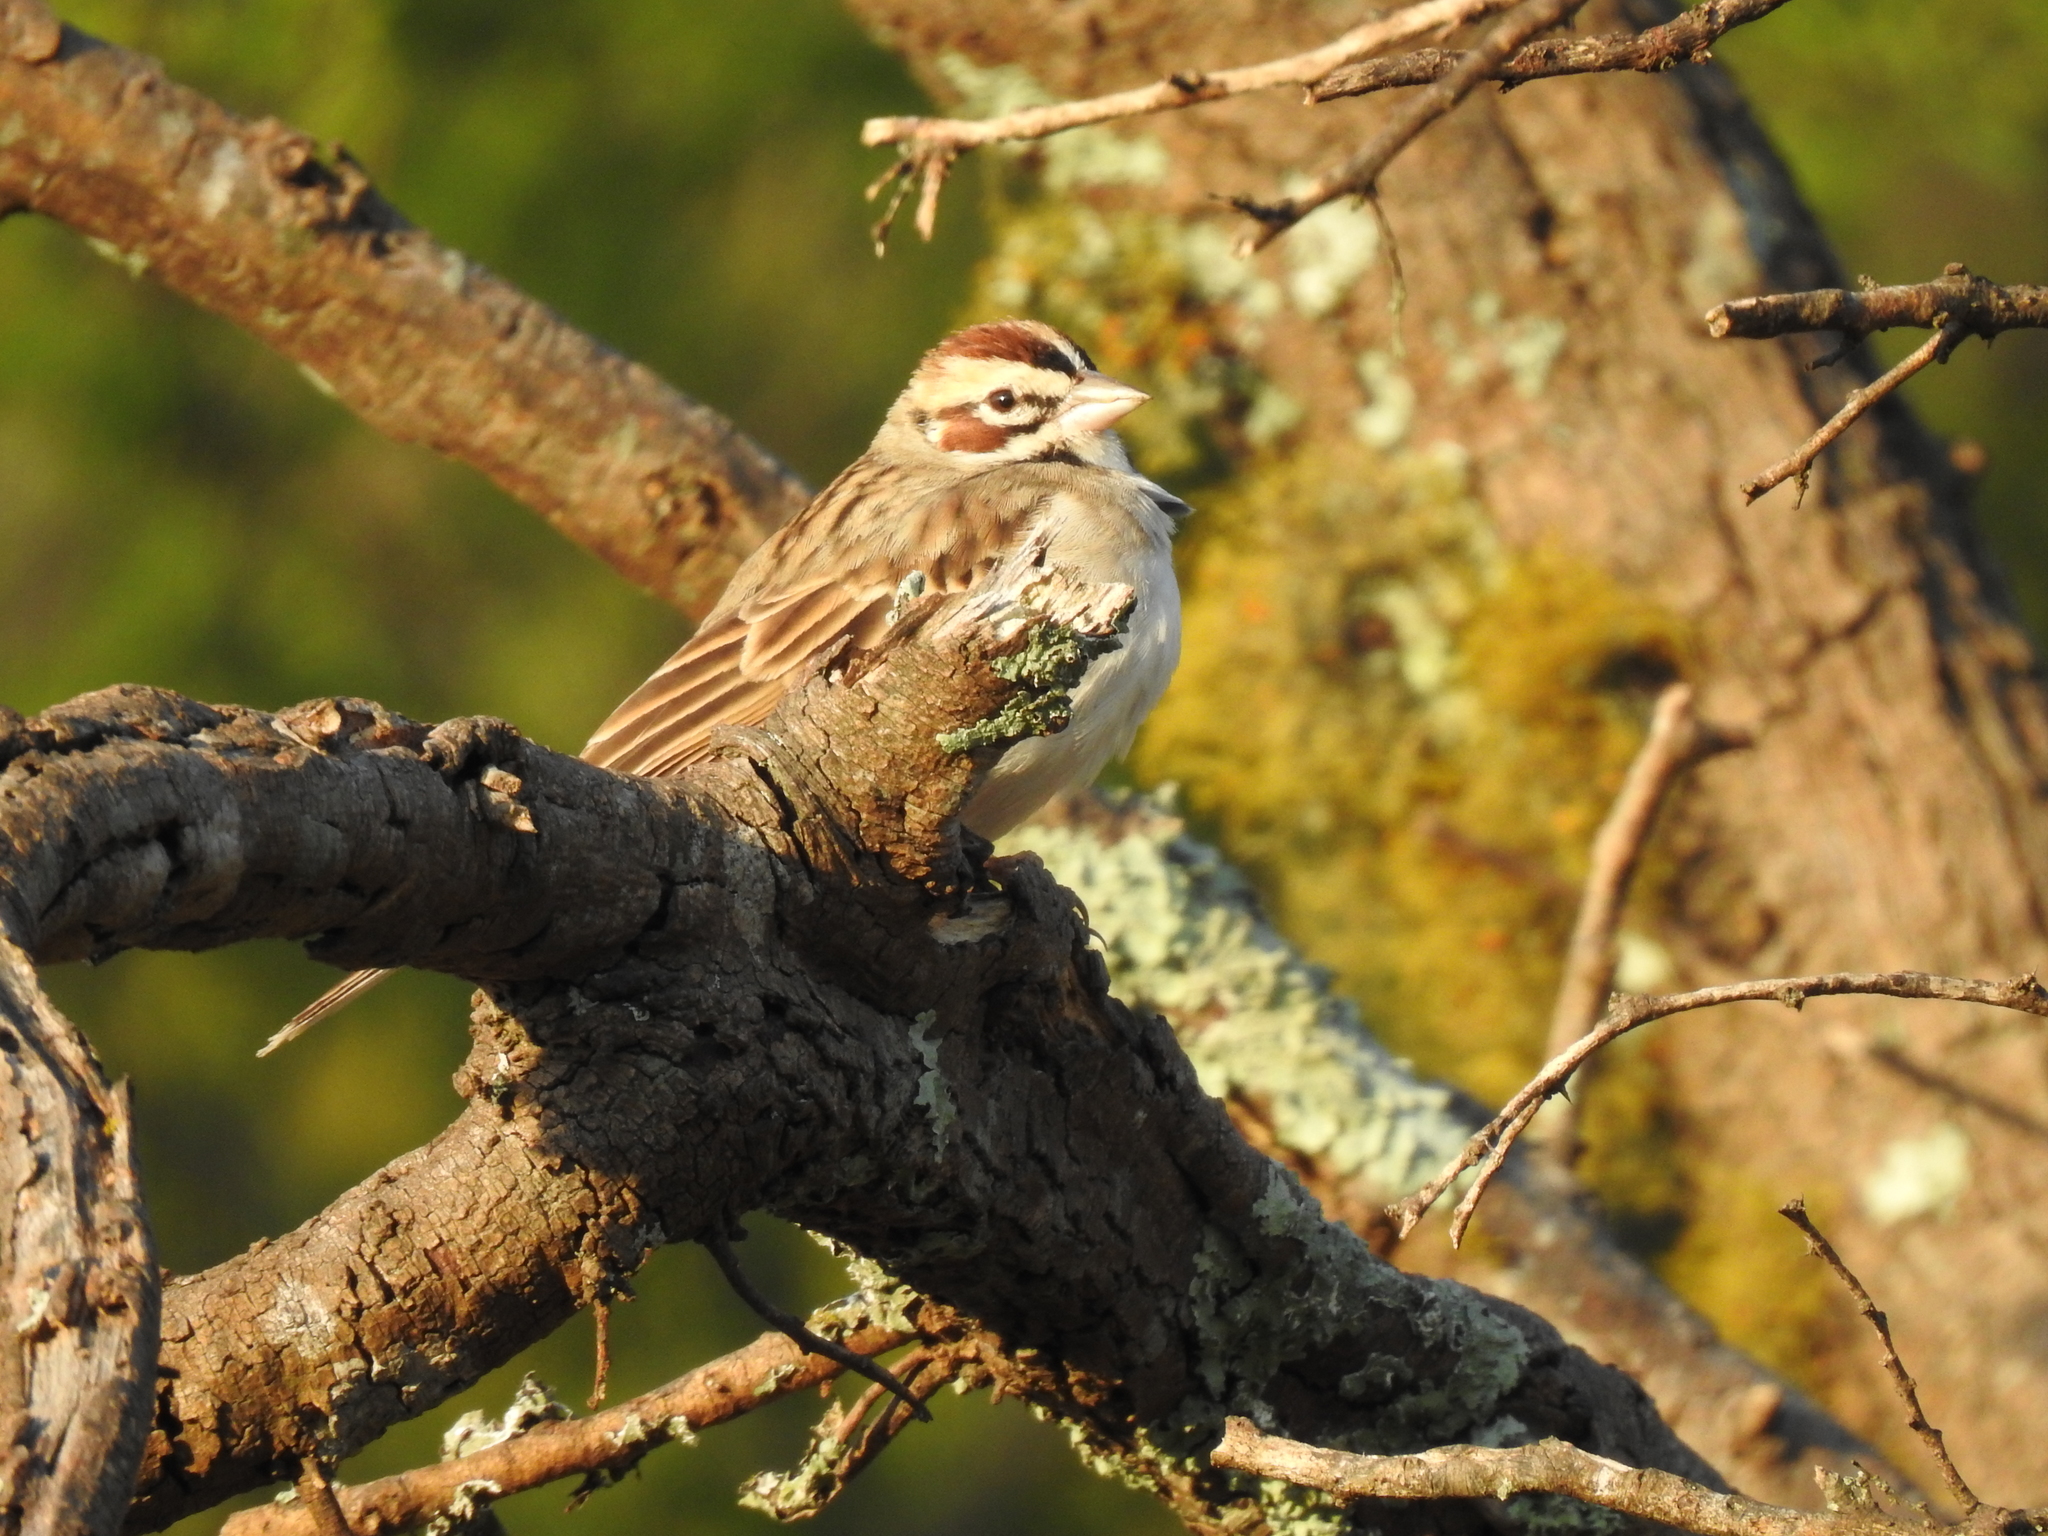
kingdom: Animalia
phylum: Chordata
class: Aves
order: Passeriformes
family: Passerellidae
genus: Chondestes
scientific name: Chondestes grammacus
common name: Lark sparrow
